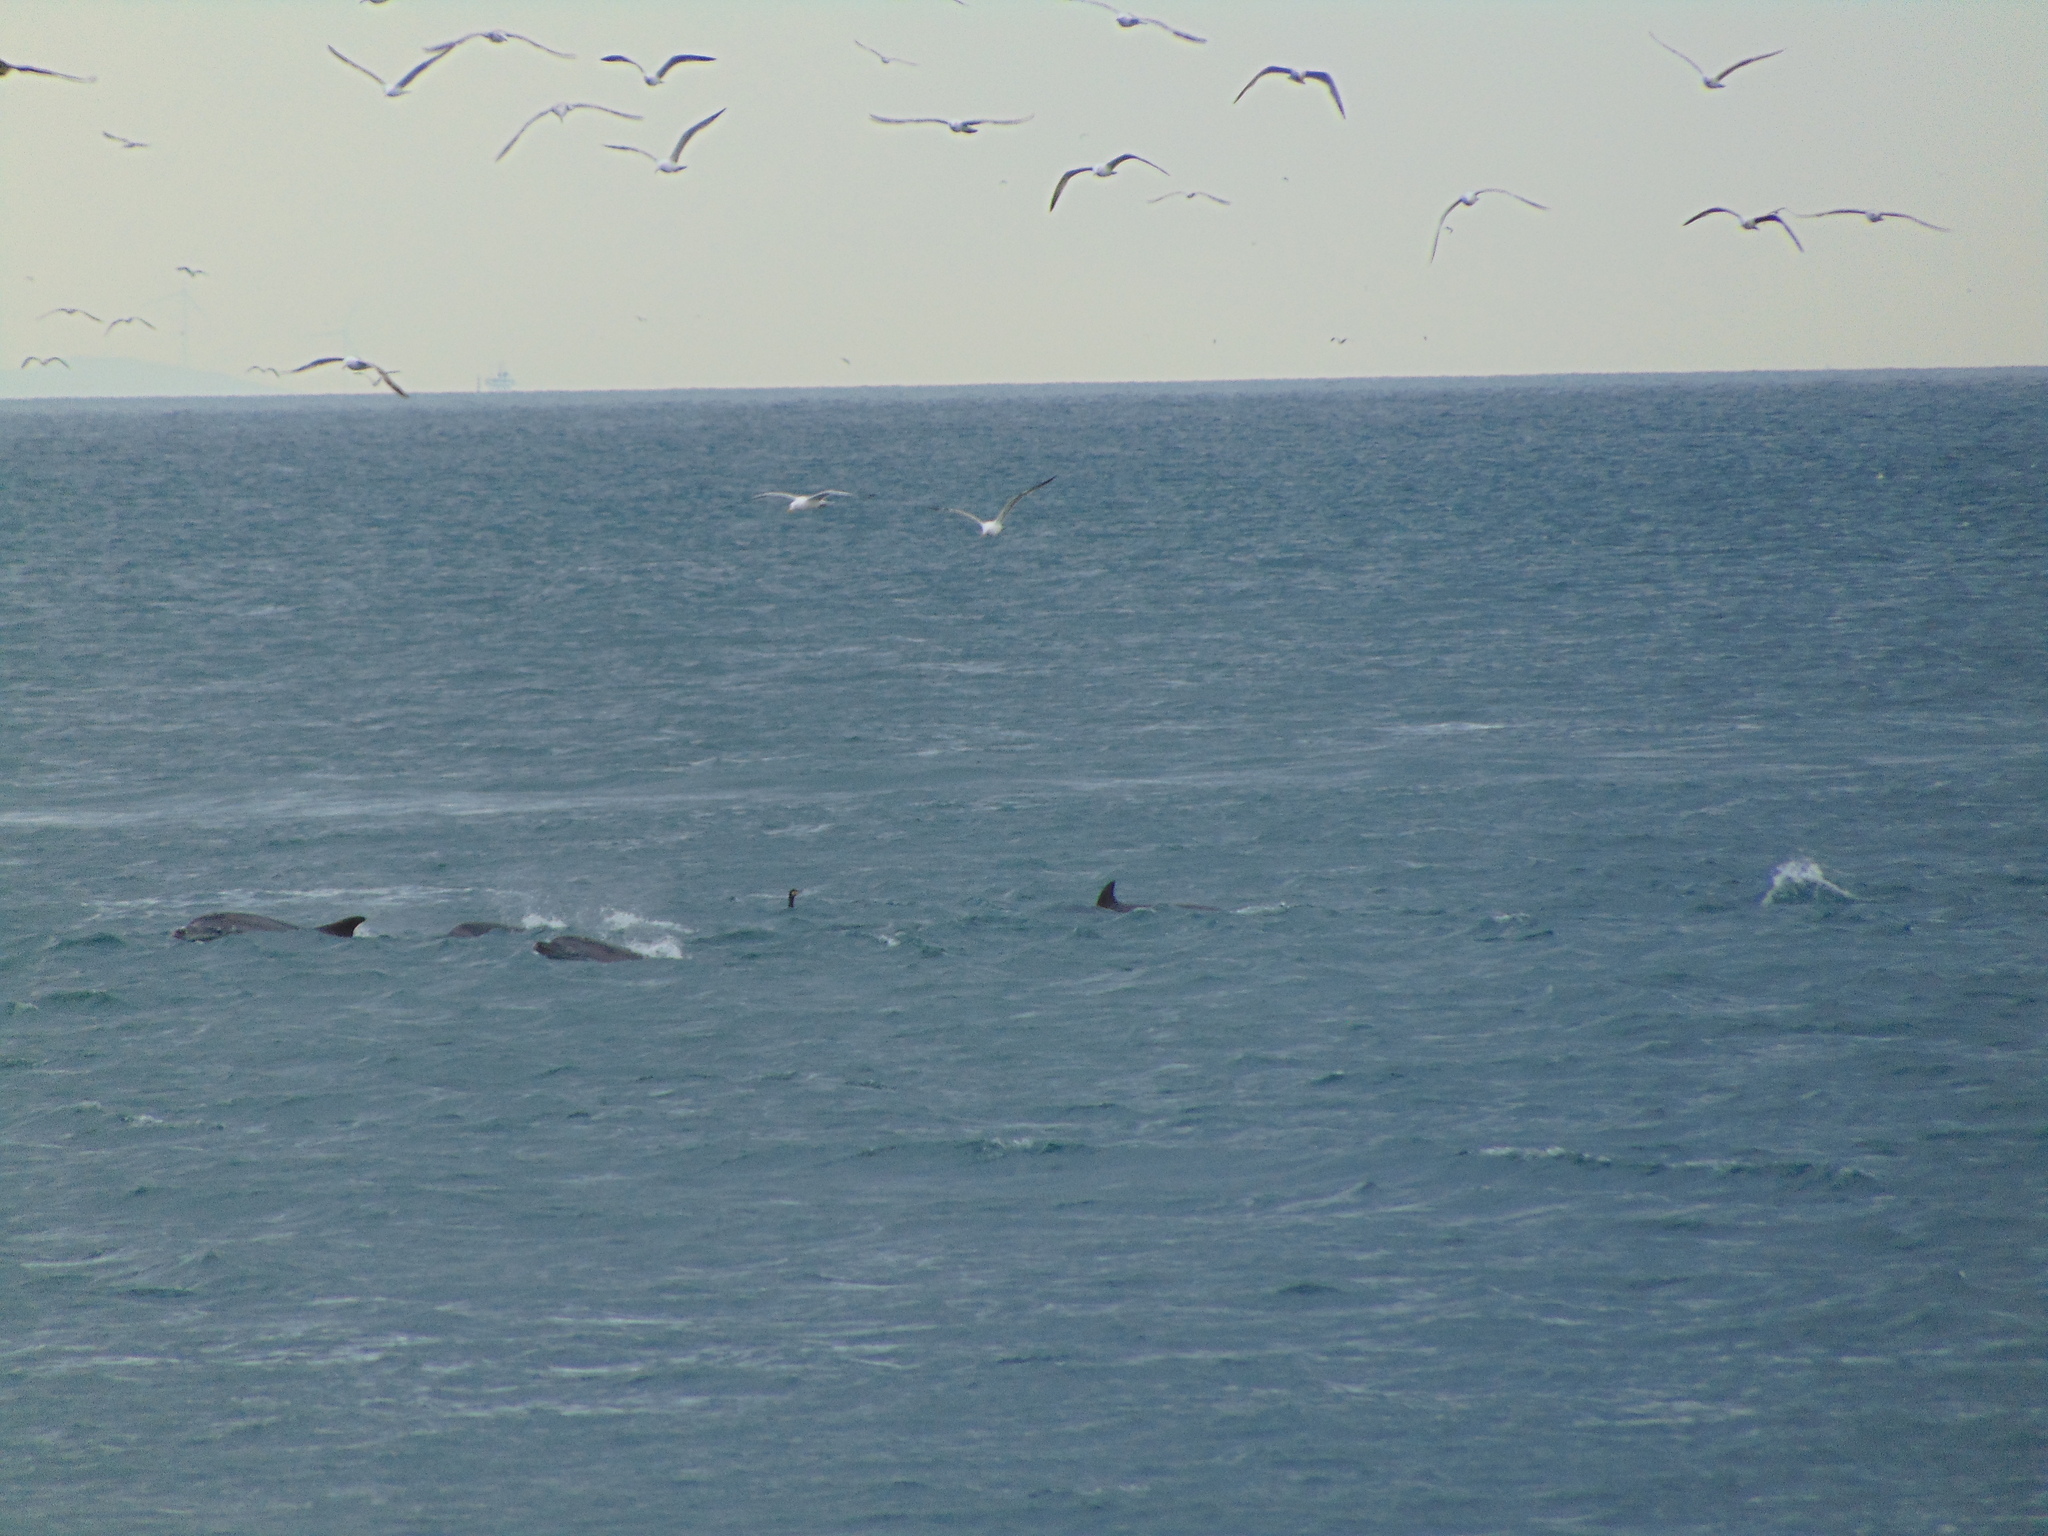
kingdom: Animalia
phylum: Chordata
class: Mammalia
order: Cetacea
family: Delphinidae
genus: Tursiops
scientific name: Tursiops truncatus
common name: Bottlenose dolphin
